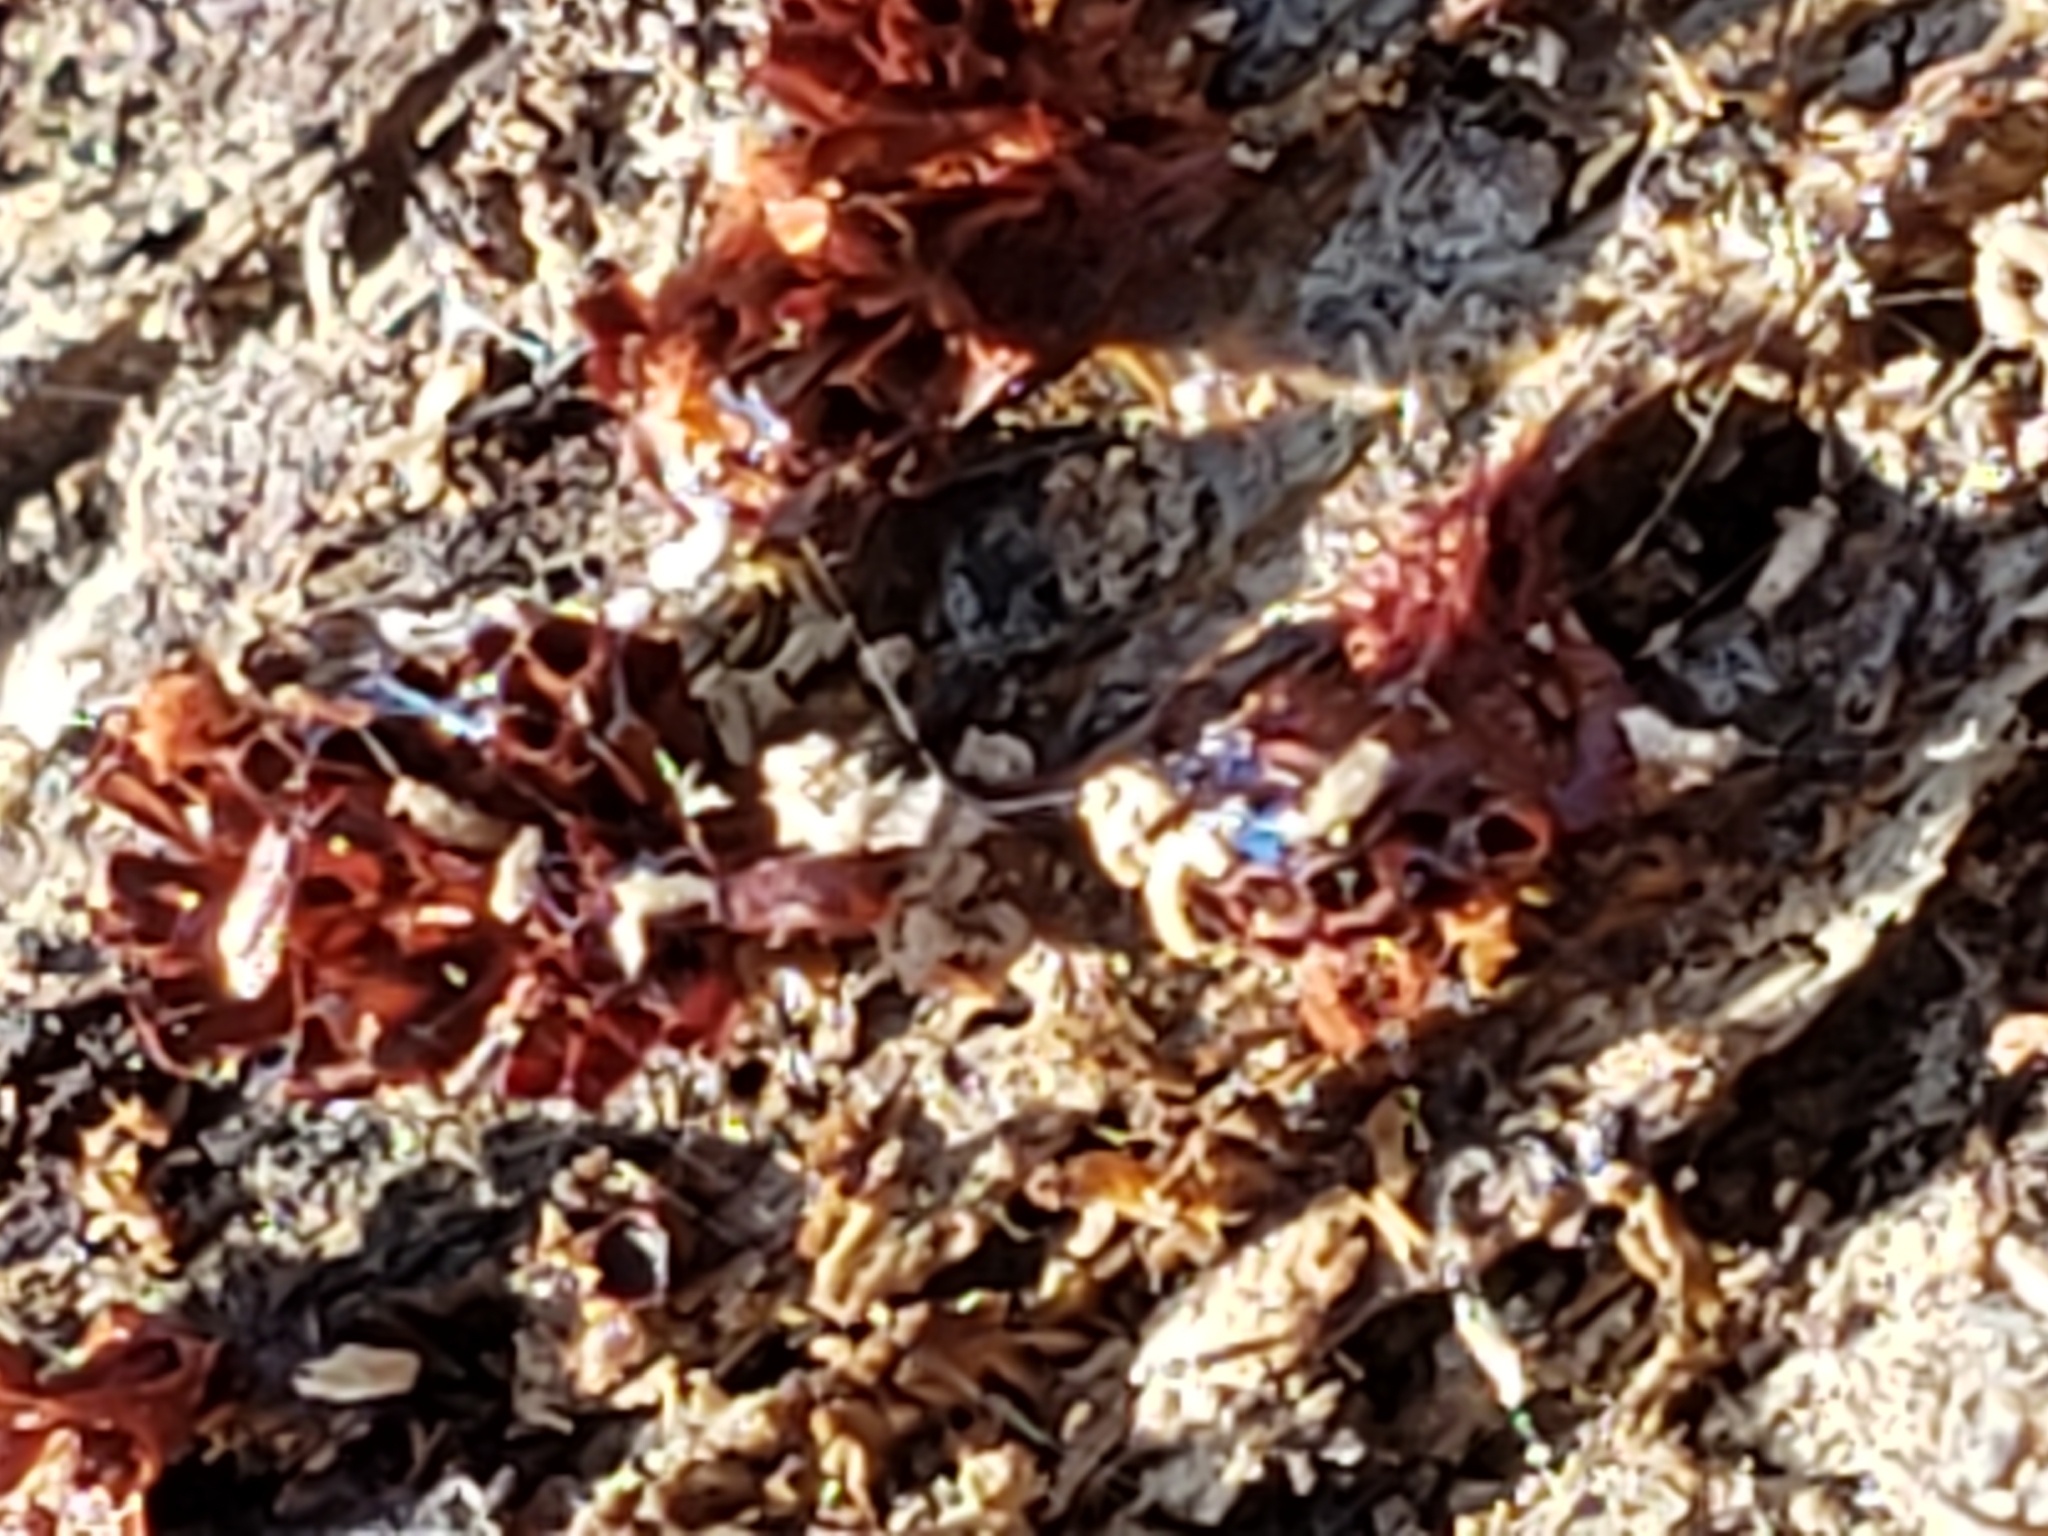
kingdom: Protozoa
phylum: Mycetozoa
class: Myxomycetes
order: Trichiales
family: Trichiaceae
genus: Metatrichia
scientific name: Metatrichia vesparia
